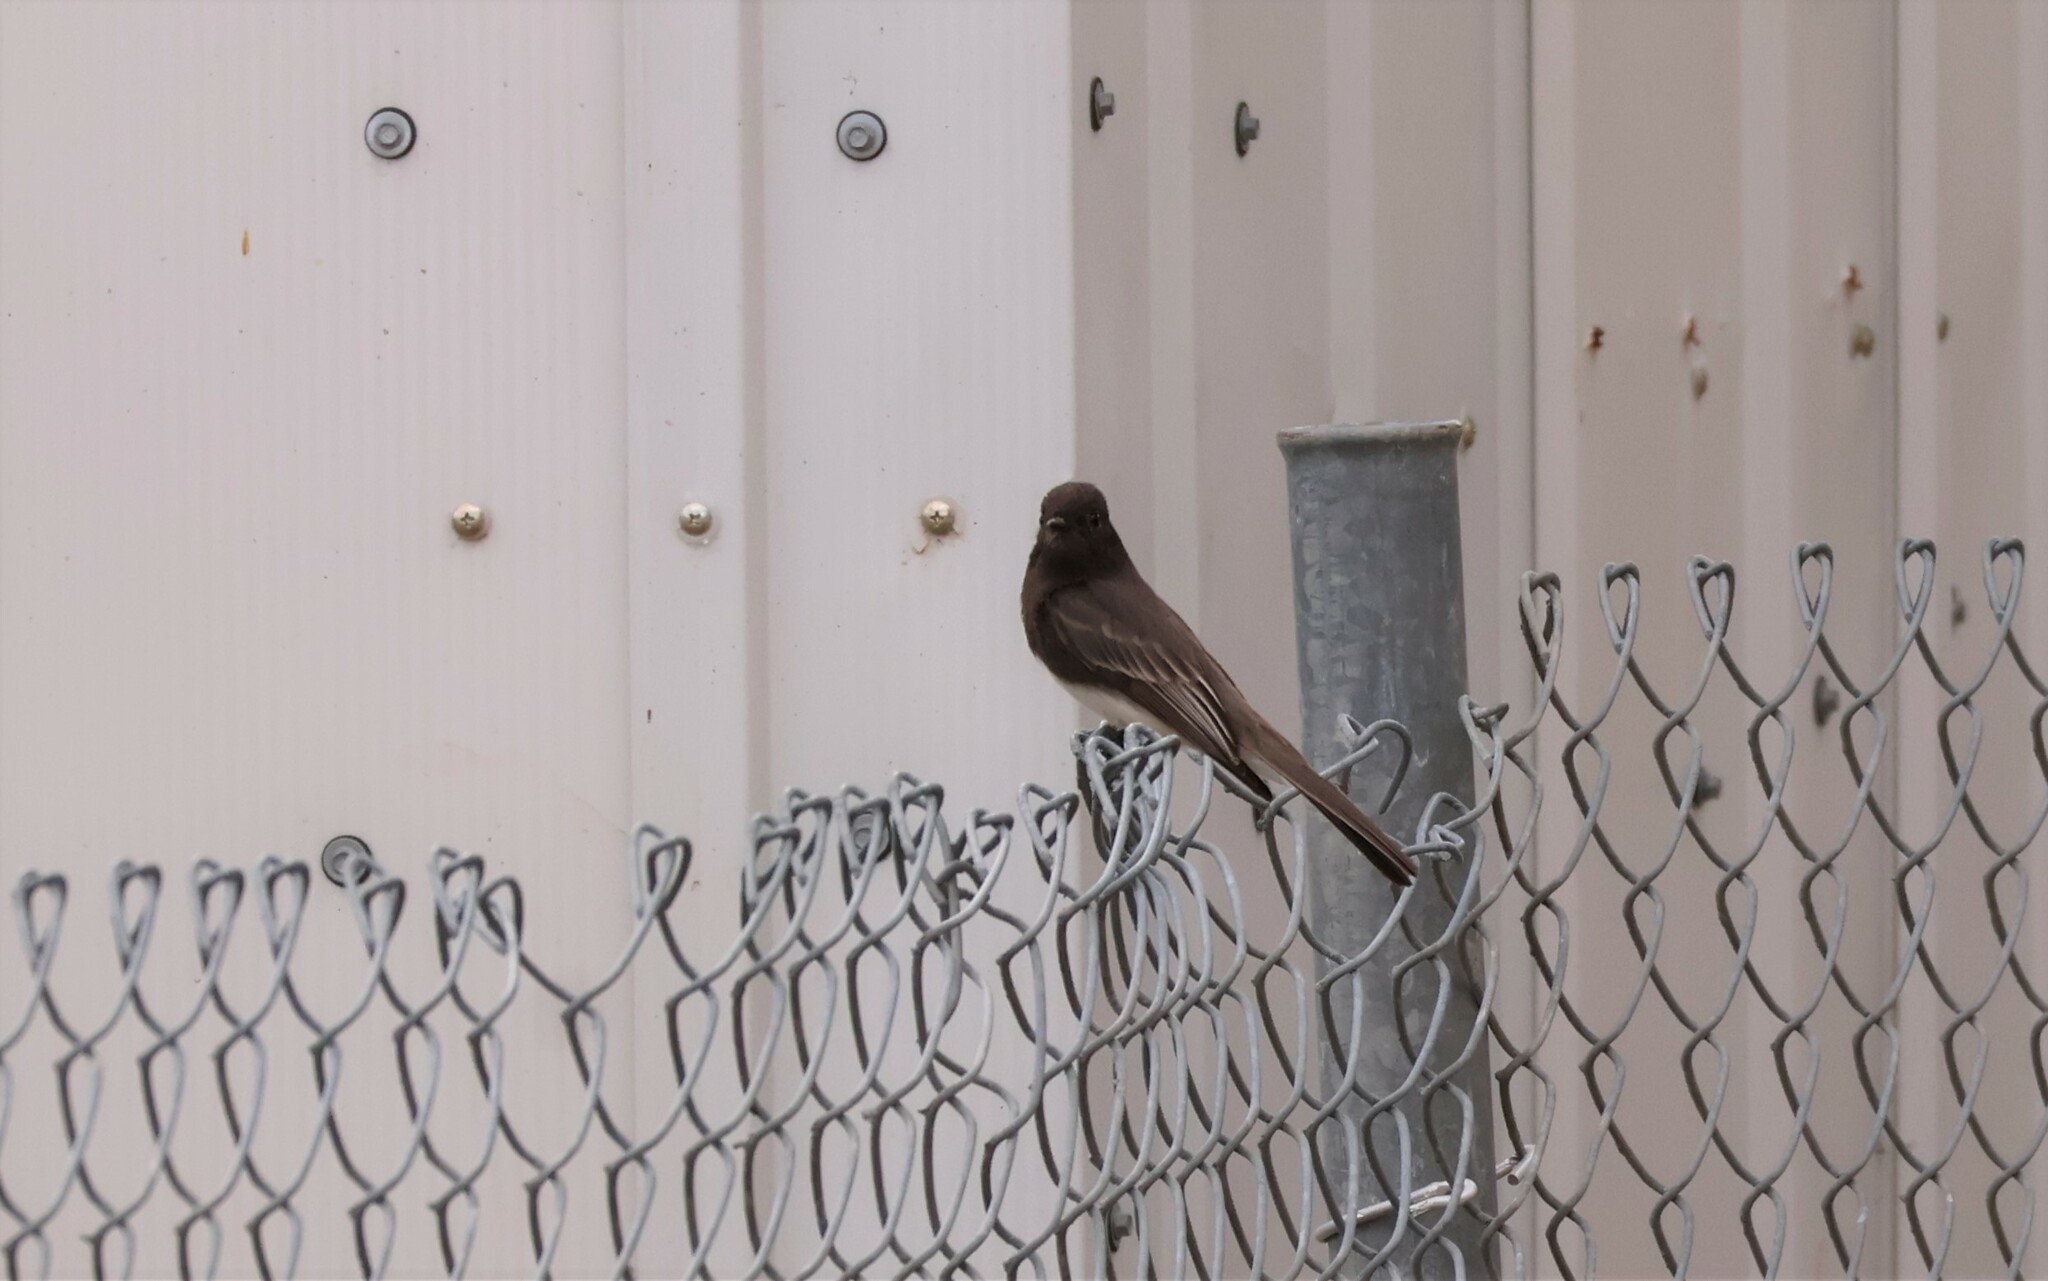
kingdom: Animalia
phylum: Chordata
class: Aves
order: Passeriformes
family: Tyrannidae
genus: Sayornis
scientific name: Sayornis nigricans
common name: Black phoebe
